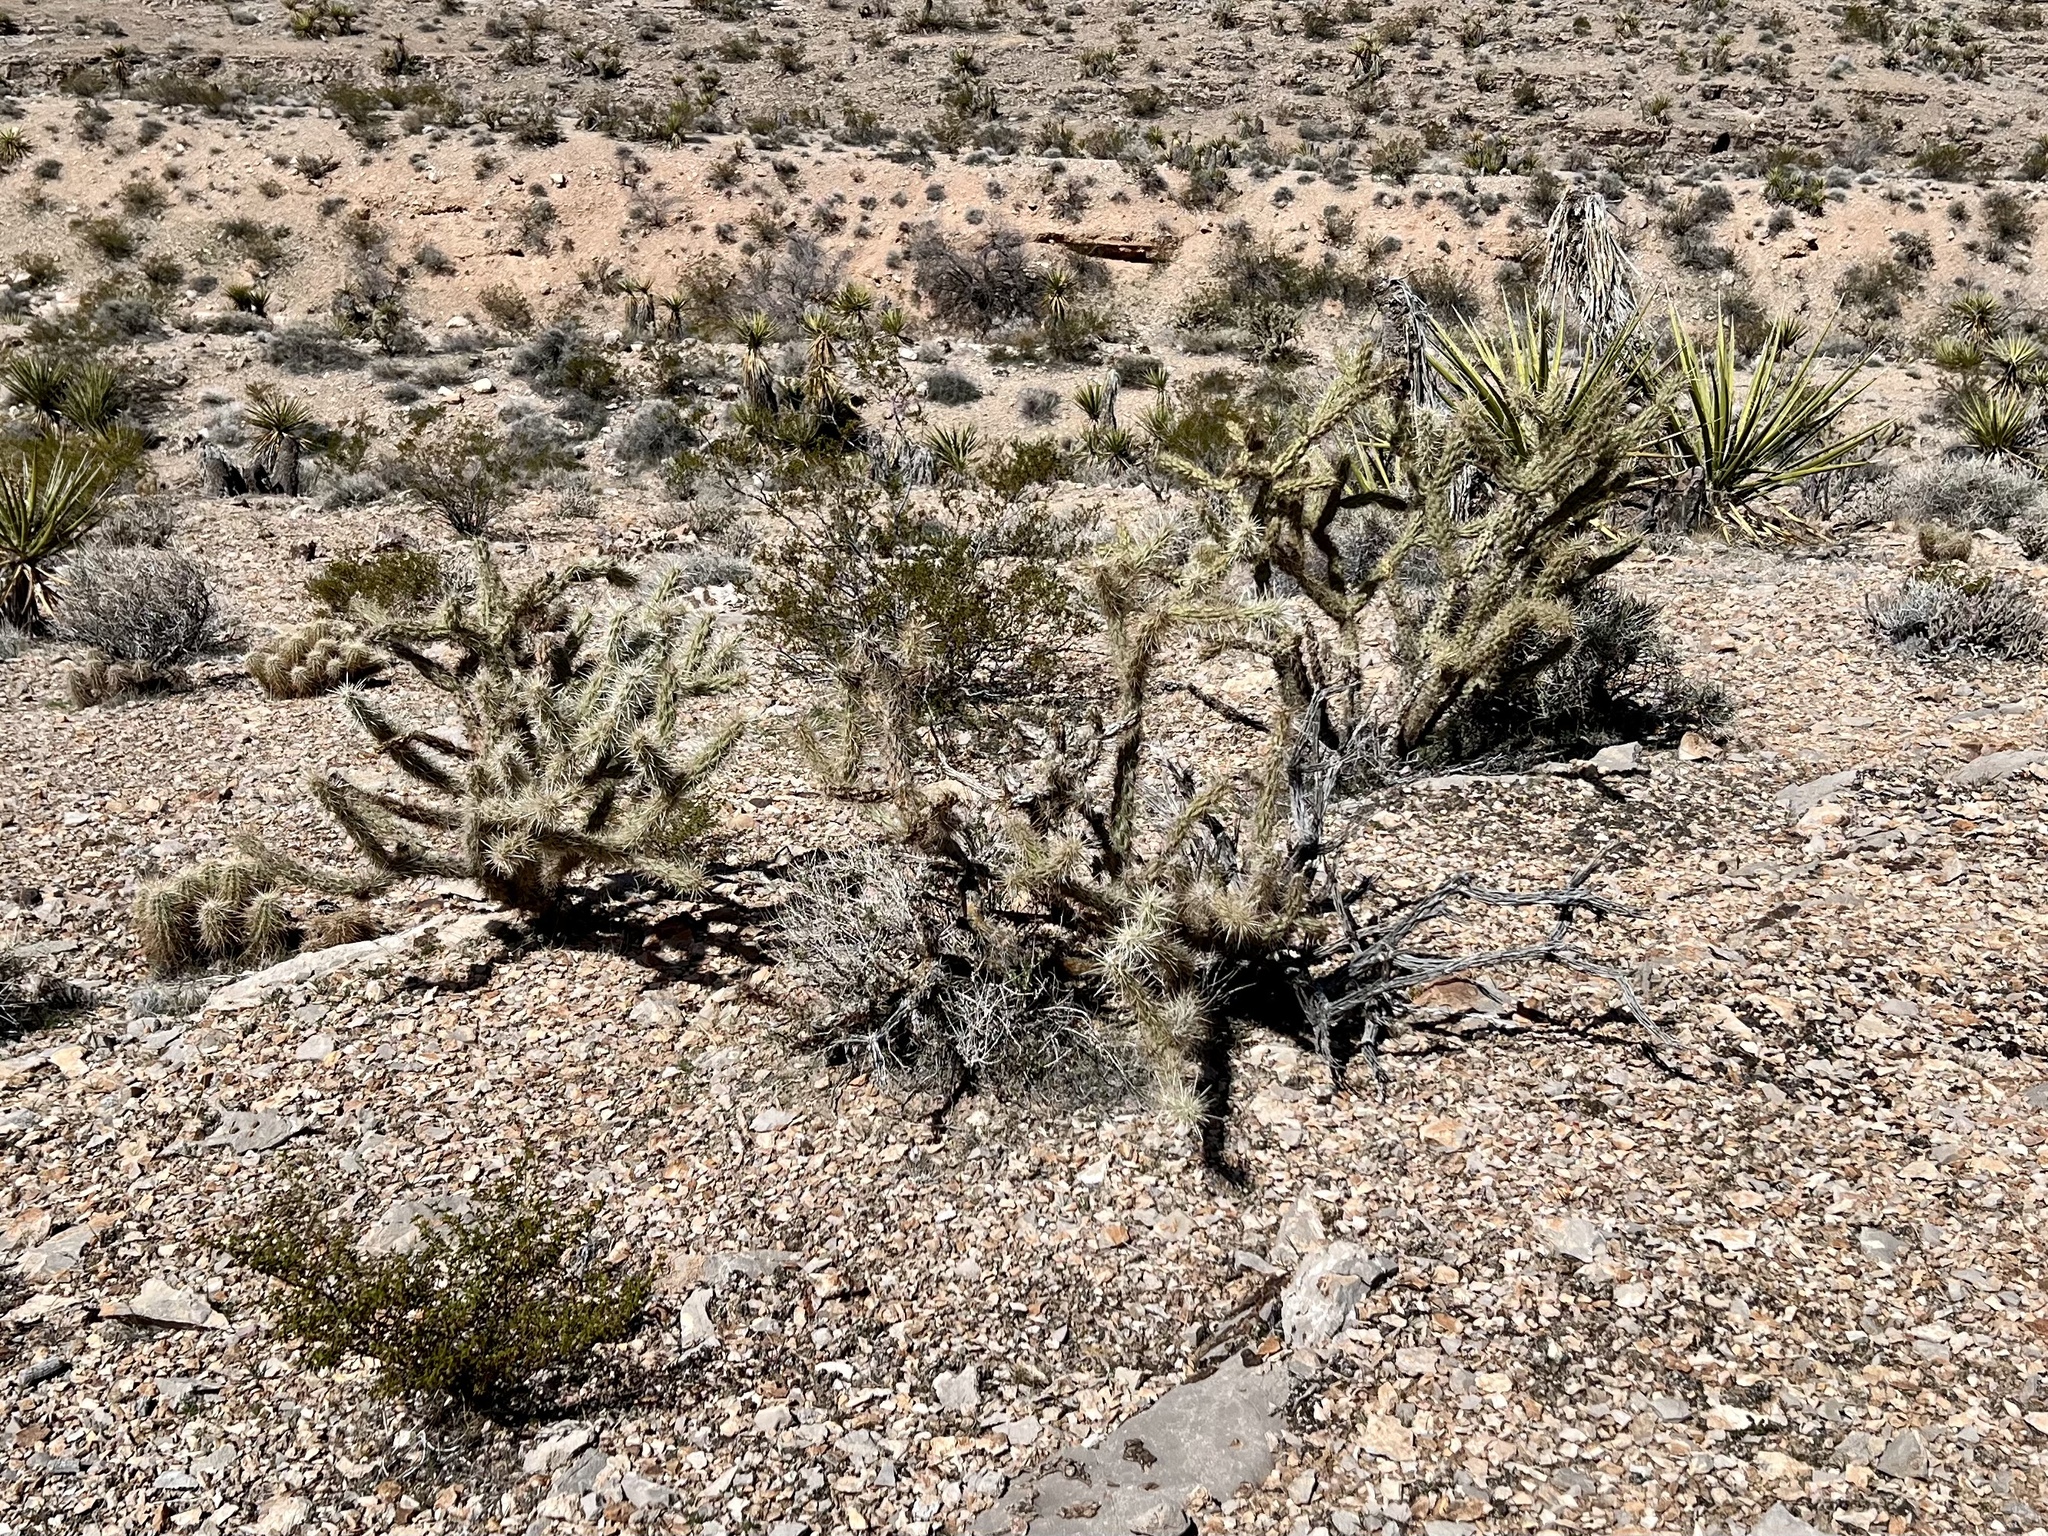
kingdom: Plantae
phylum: Tracheophyta
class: Magnoliopsida
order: Caryophyllales
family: Cactaceae
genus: Cylindropuntia
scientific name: Cylindropuntia acanthocarpa
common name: Buckhorn cholla
